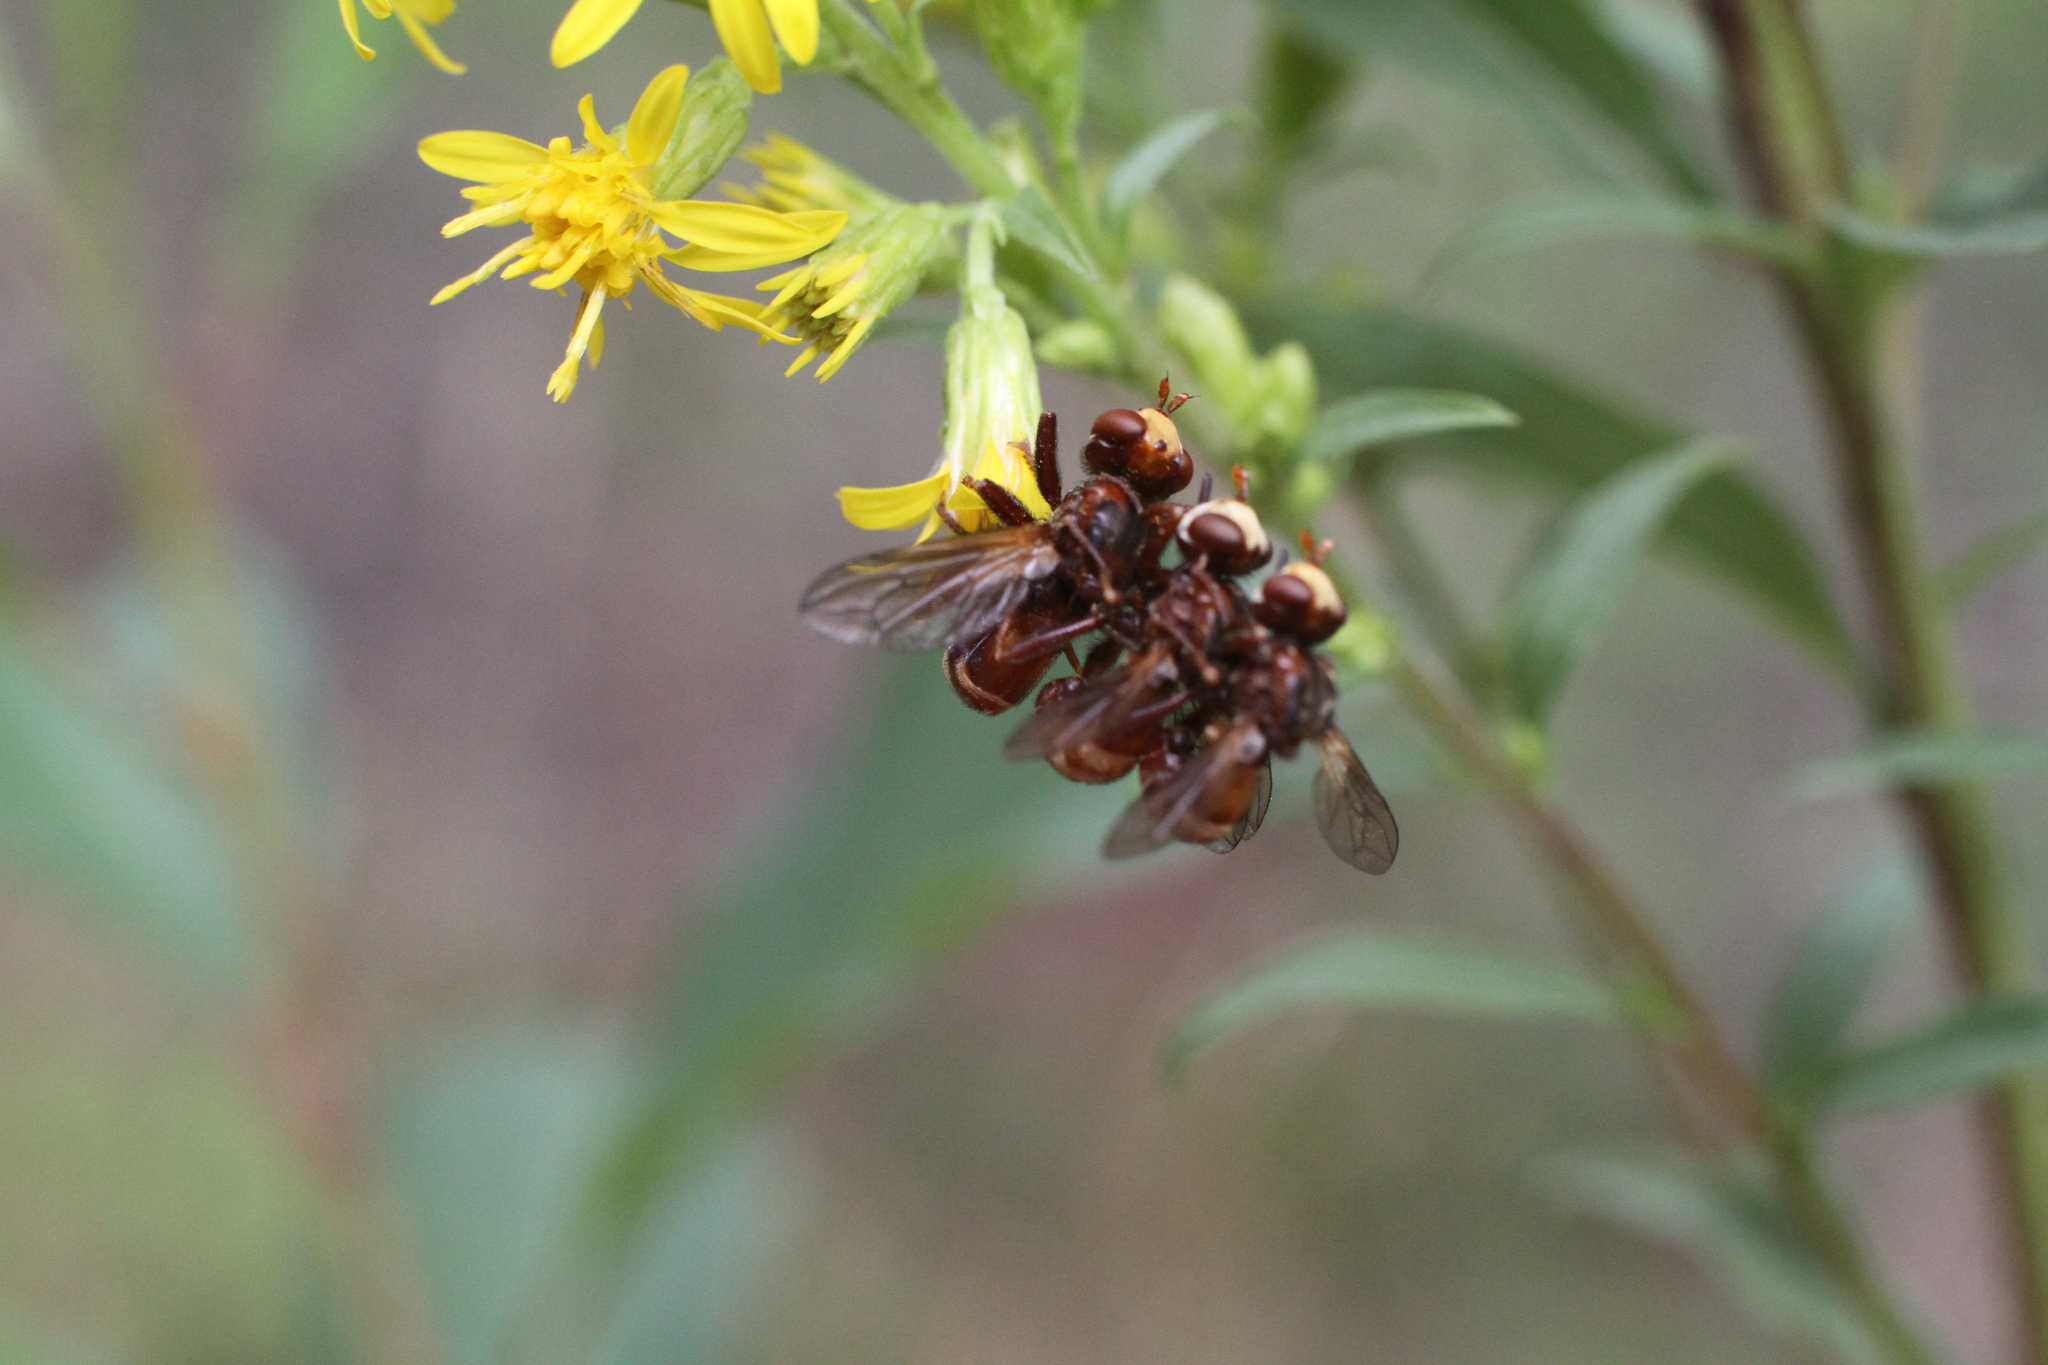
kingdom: Animalia
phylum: Arthropoda
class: Insecta
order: Diptera
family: Conopidae
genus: Sicus
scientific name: Sicus ferrugineus
